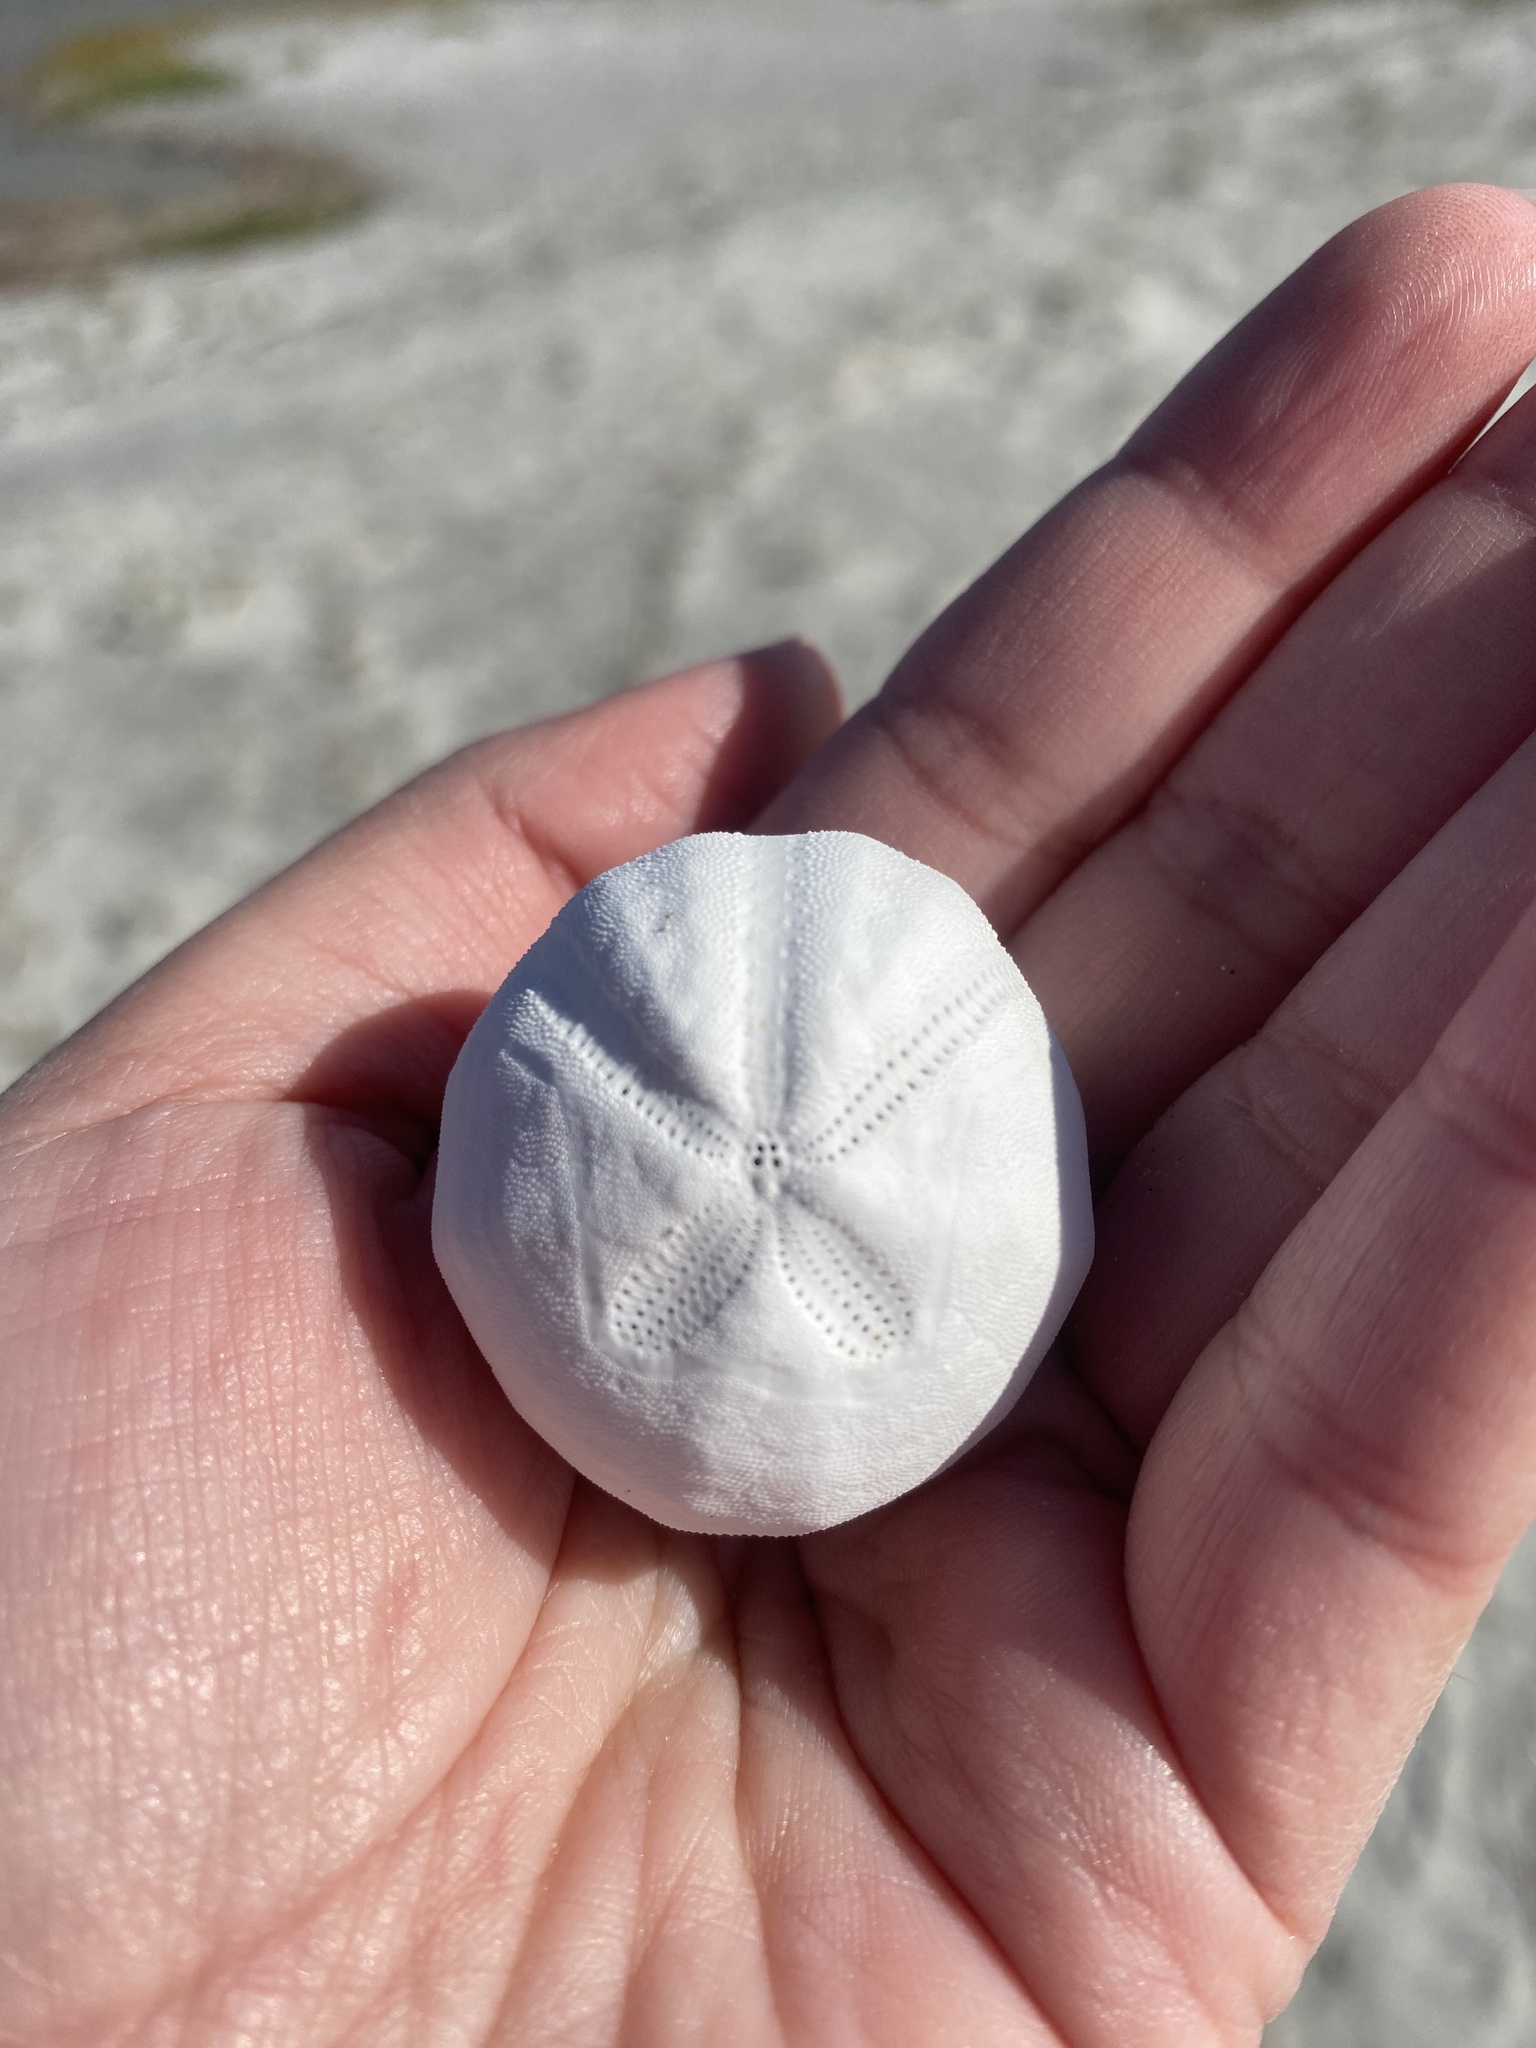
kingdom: Animalia
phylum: Echinodermata
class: Echinoidea
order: Spatangoida
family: Prenasteridae
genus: Agassizia
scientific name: Agassizia scrobiculata
